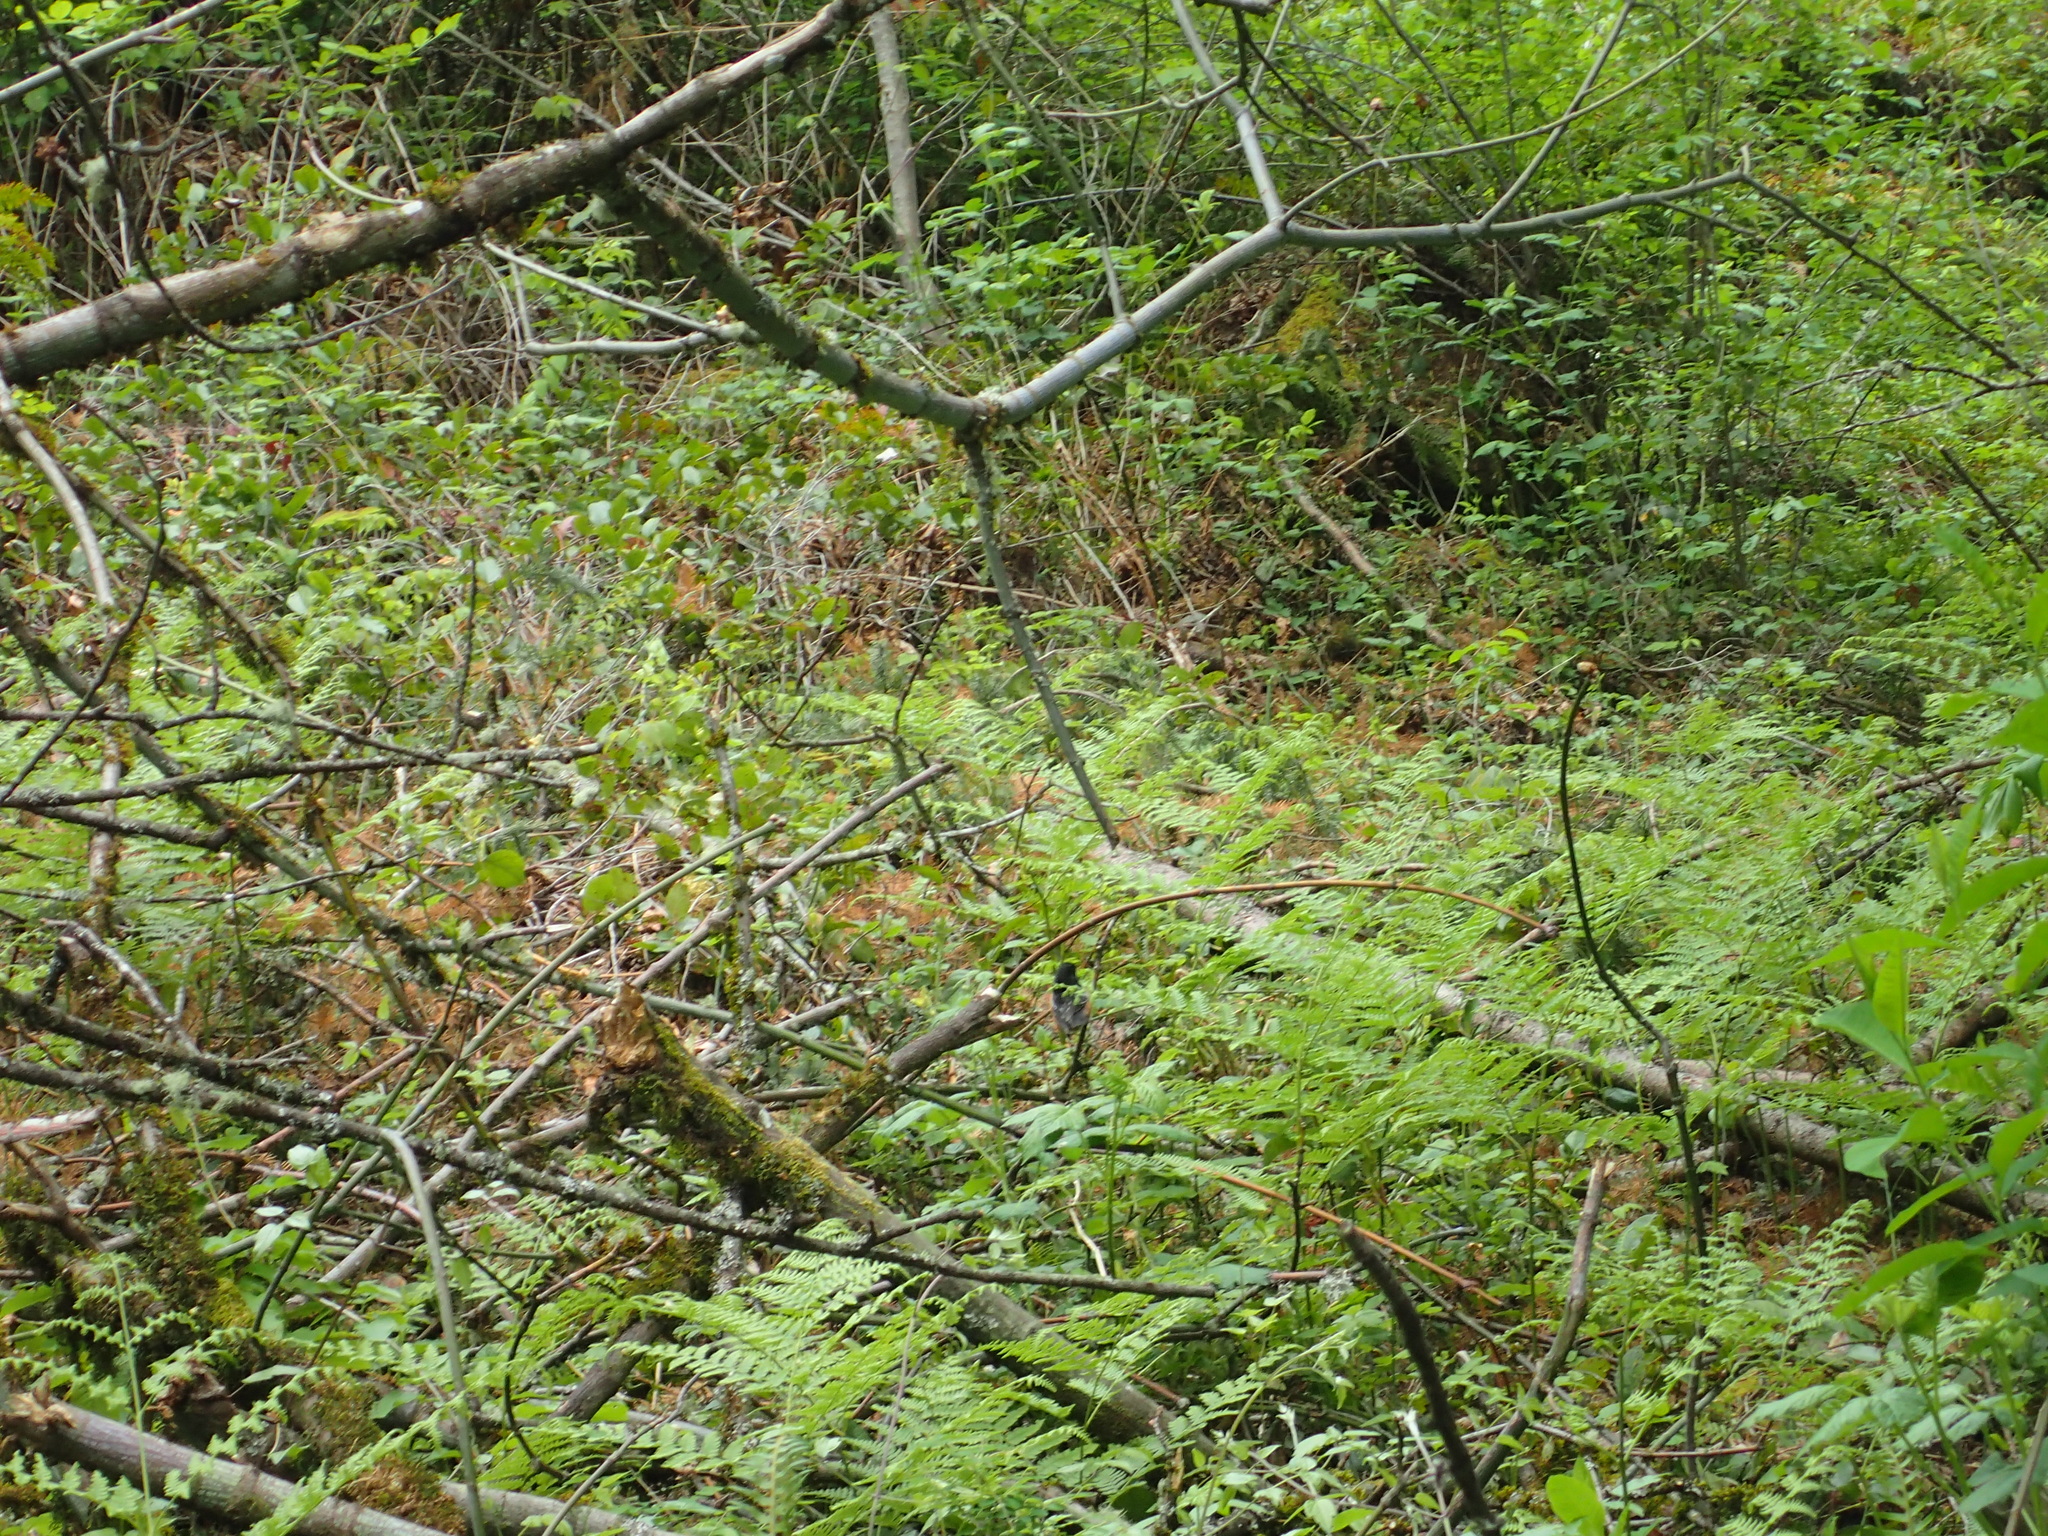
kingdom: Animalia
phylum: Chordata
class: Aves
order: Passeriformes
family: Passerellidae
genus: Pipilo
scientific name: Pipilo maculatus
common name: Spotted towhee
